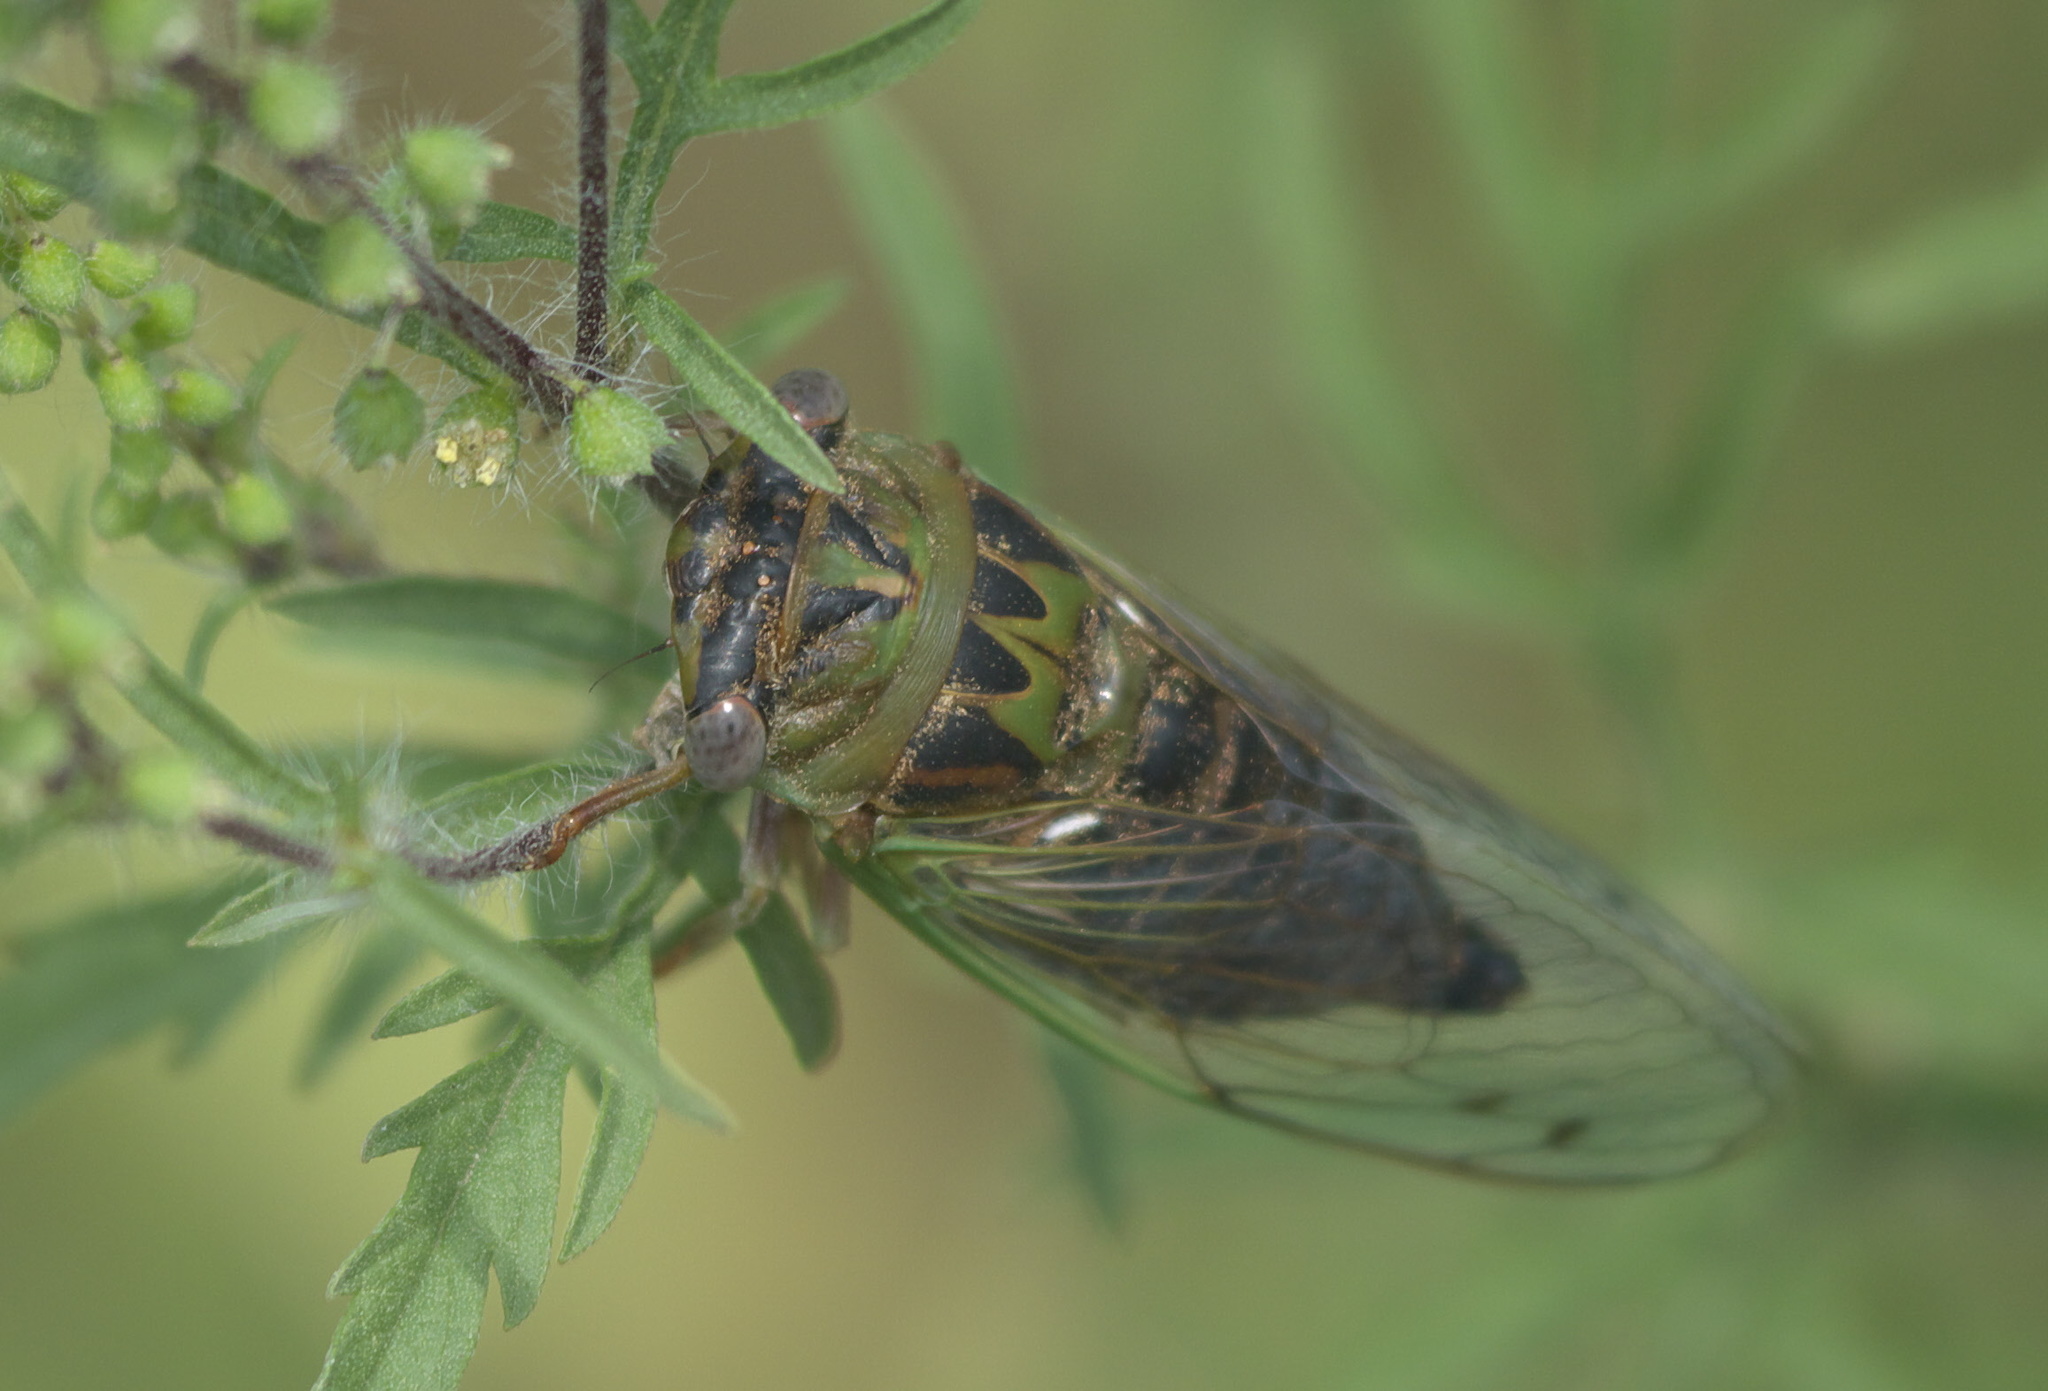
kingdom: Animalia
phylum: Arthropoda
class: Insecta
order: Hemiptera
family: Cicadidae
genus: Neotibicen
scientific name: Neotibicen aurifer
